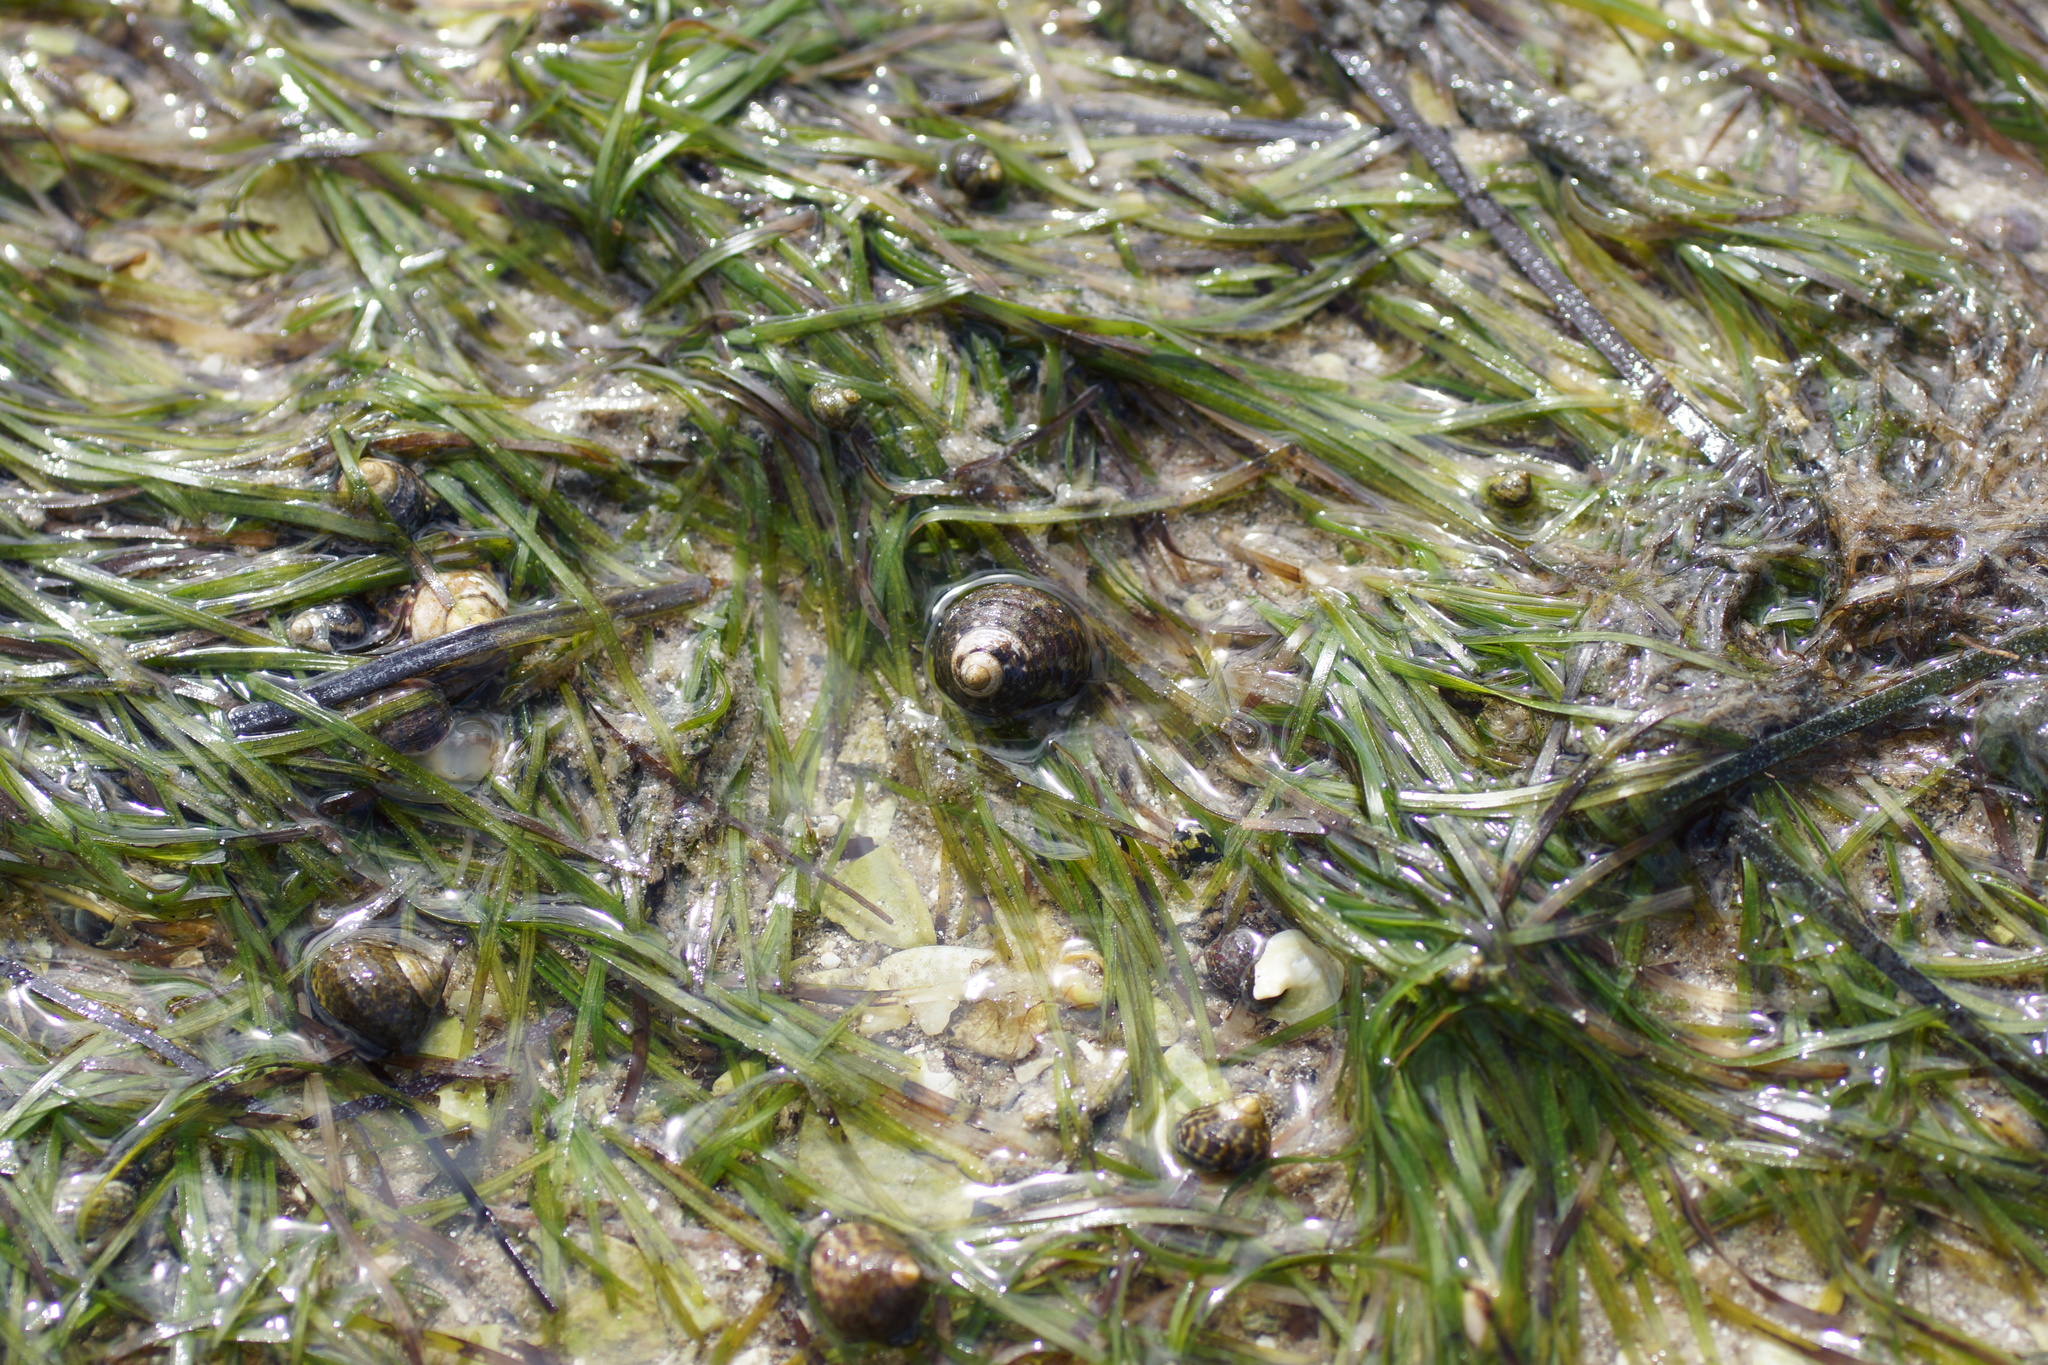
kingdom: Animalia
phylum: Mollusca
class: Gastropoda
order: Trochida
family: Trochidae
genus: Austrocochlea
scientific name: Austrocochlea porcata
